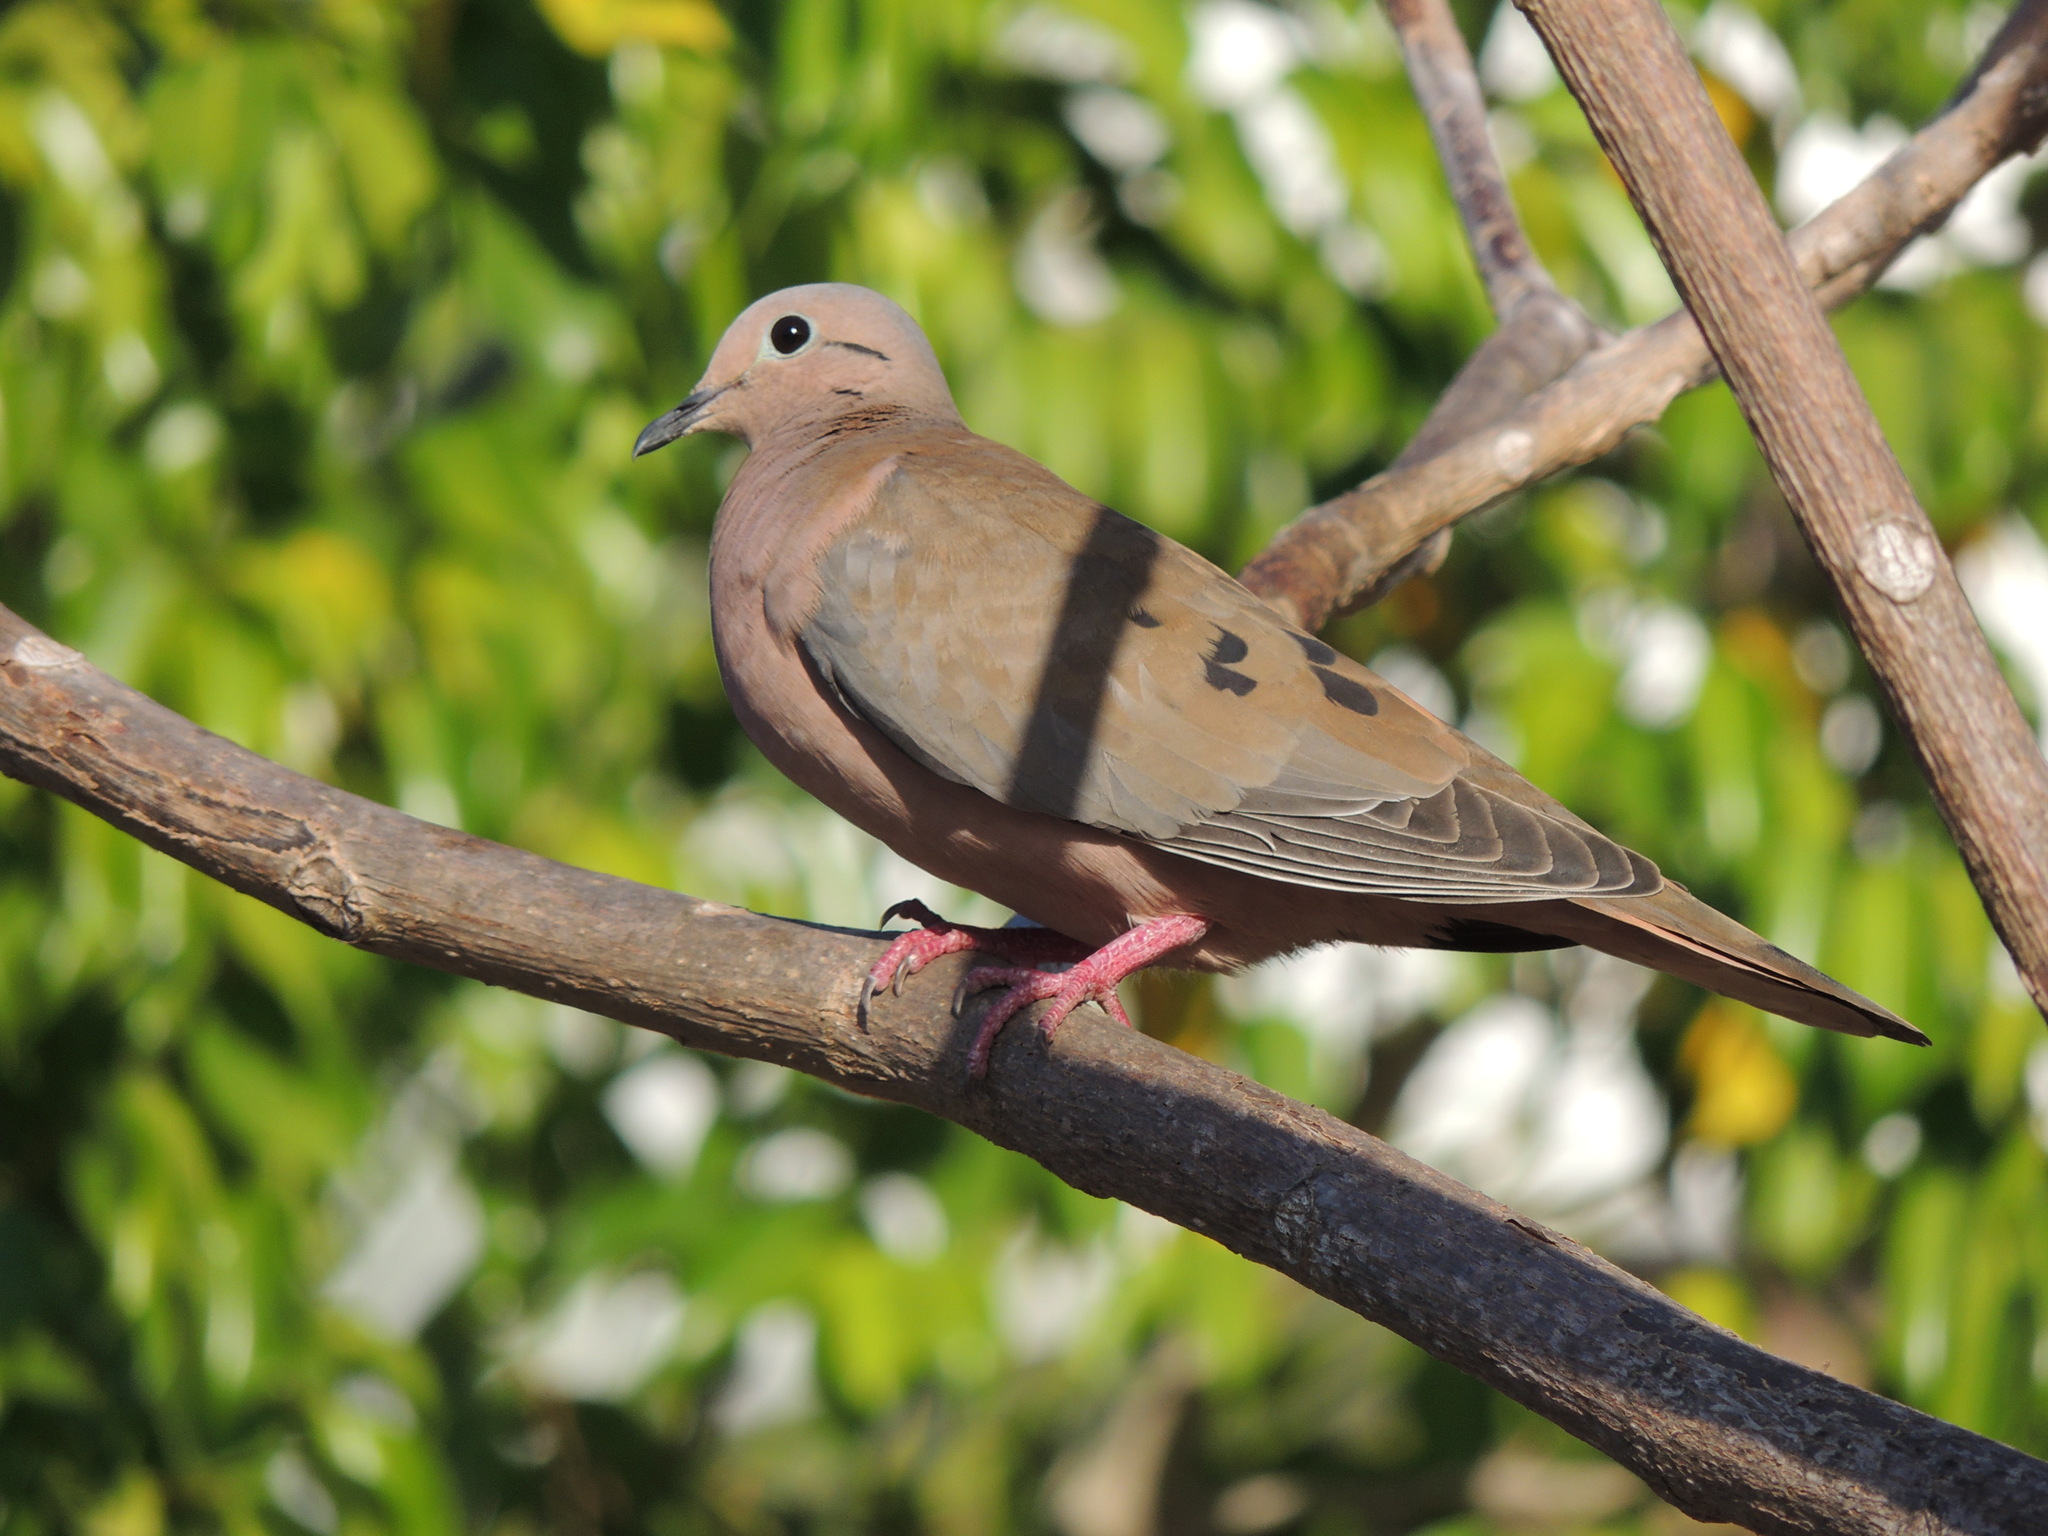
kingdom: Animalia
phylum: Chordata
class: Aves
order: Columbiformes
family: Columbidae
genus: Zenaida
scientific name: Zenaida auriculata
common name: Eared dove
